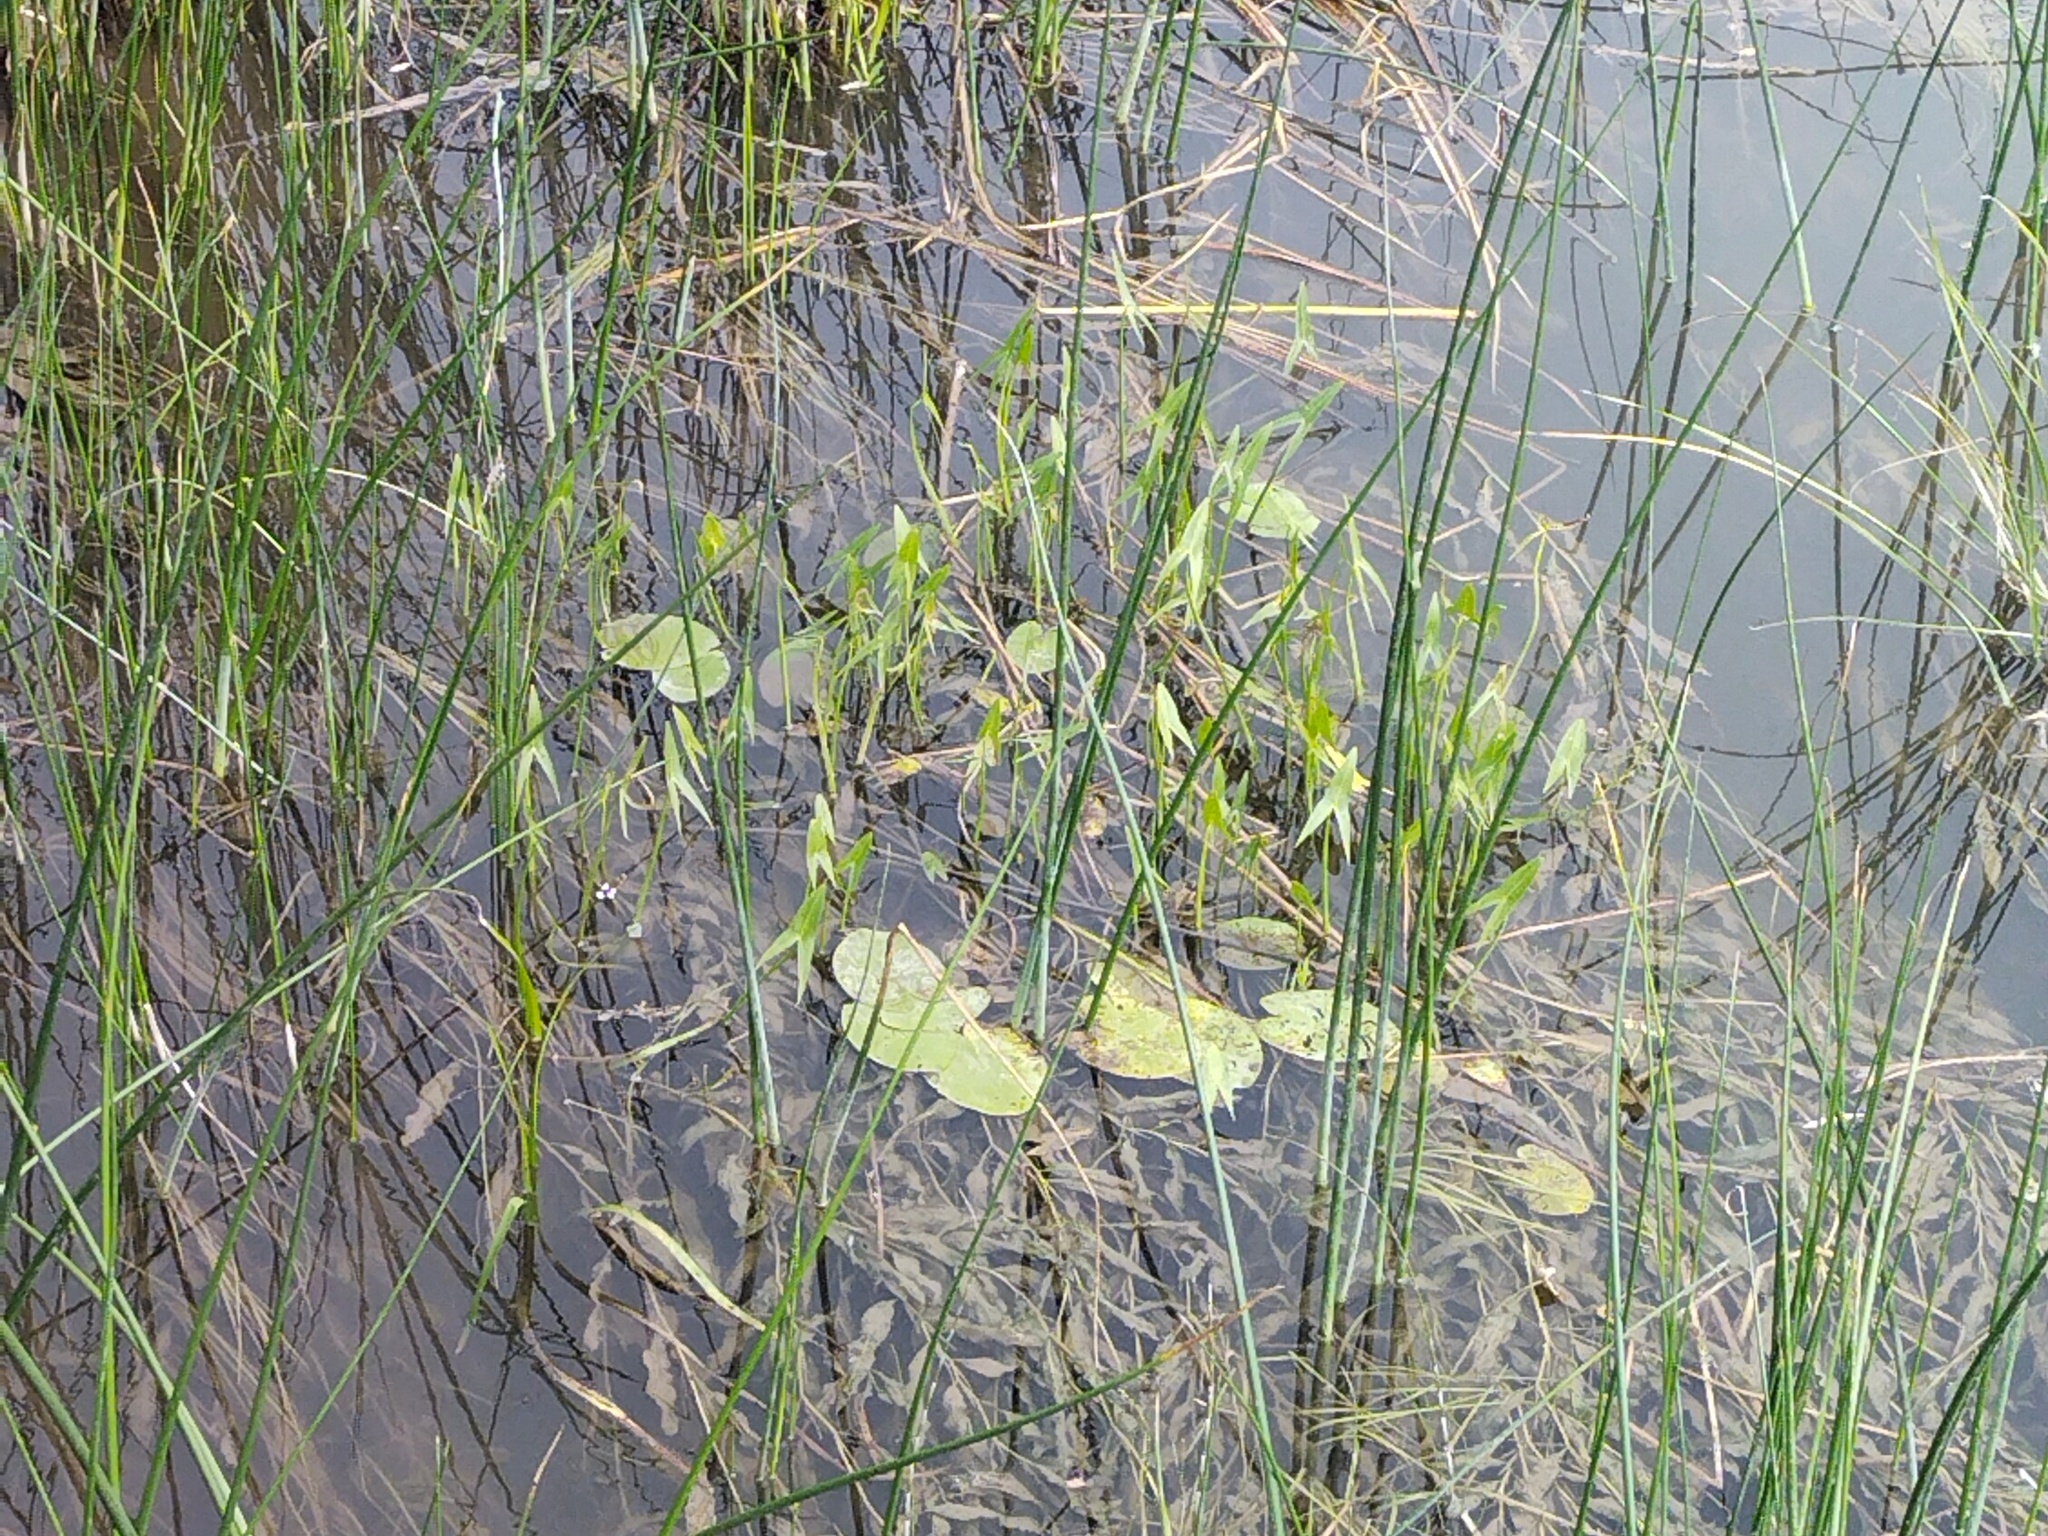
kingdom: Plantae
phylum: Tracheophyta
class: Liliopsida
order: Alismatales
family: Alismataceae
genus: Sagittaria
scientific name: Sagittaria sagittifolia
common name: Arrowhead
